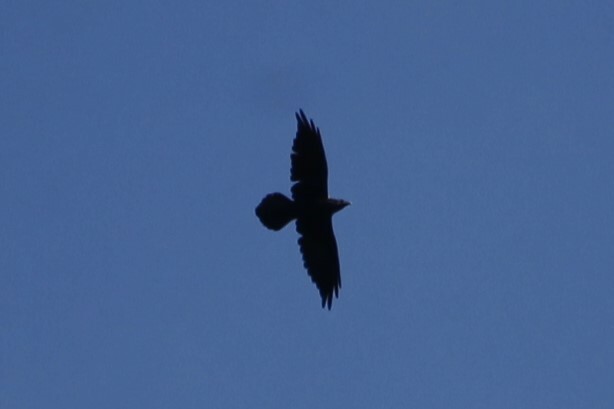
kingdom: Animalia
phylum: Chordata
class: Aves
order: Passeriformes
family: Corvidae
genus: Corvus
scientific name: Corvus corax
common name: Common raven
